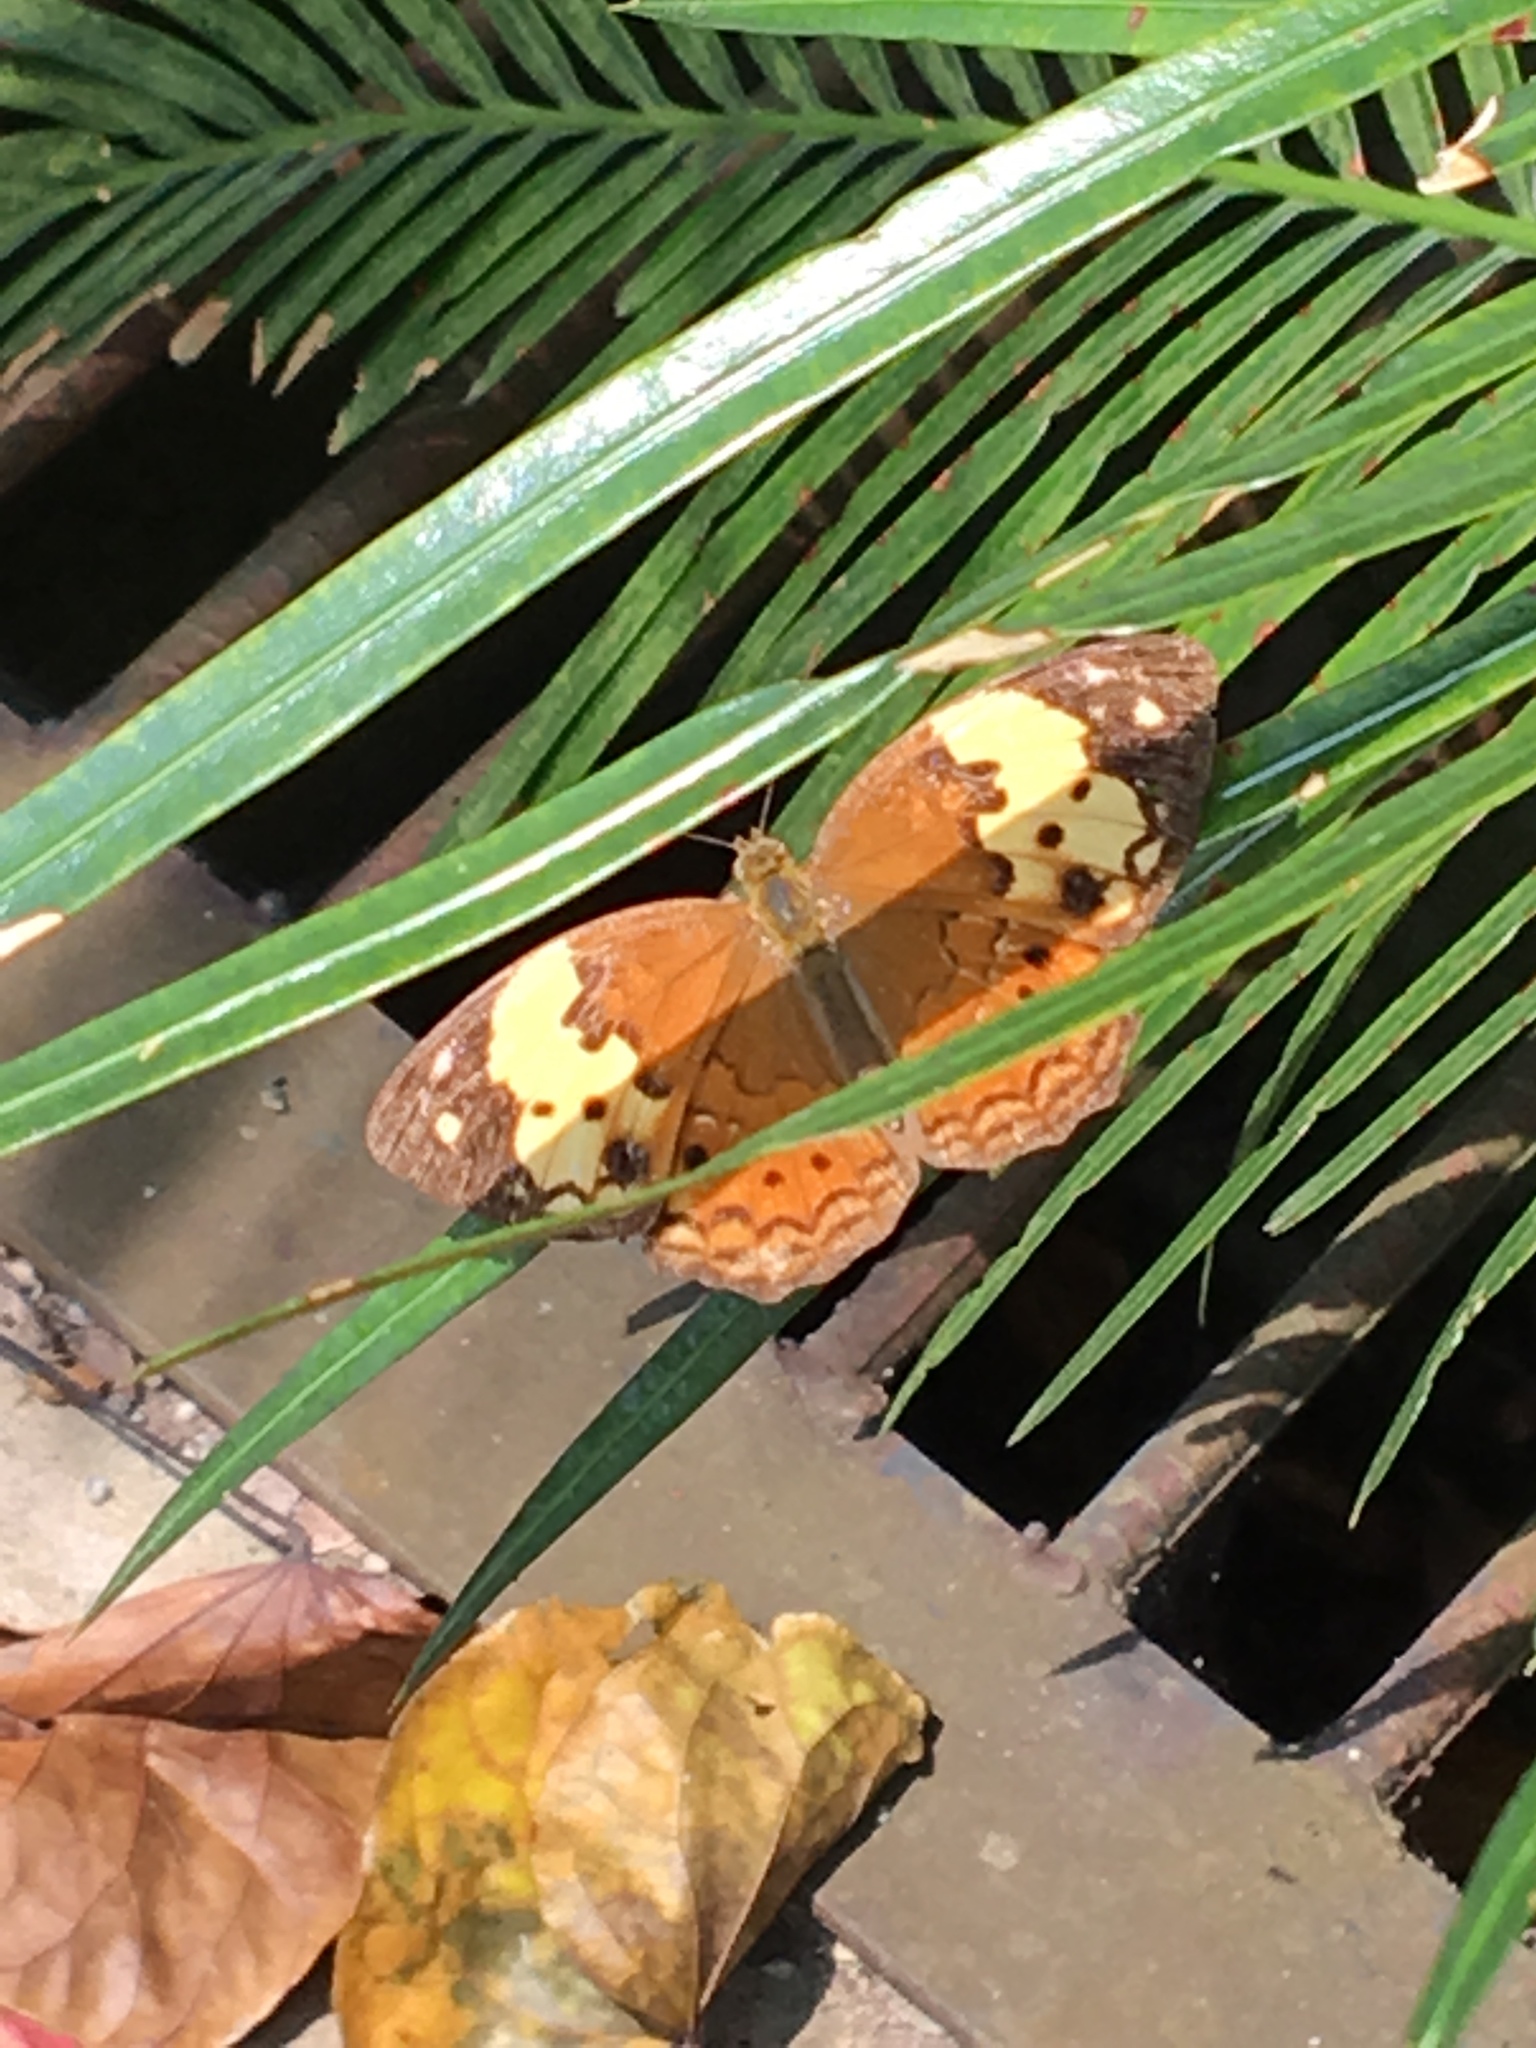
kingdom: Animalia
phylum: Arthropoda
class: Insecta
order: Lepidoptera
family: Nymphalidae
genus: Cupha
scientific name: Cupha erymanthis
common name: Rustic
